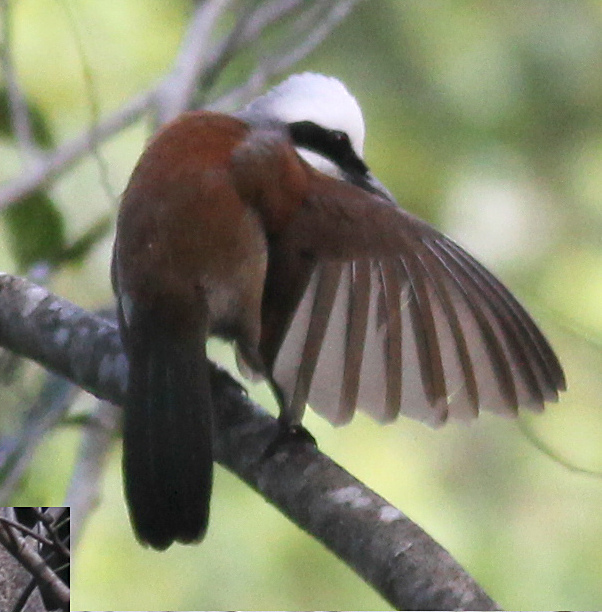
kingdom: Animalia
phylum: Chordata
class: Aves
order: Passeriformes
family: Leiothrichidae
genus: Garrulax
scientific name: Garrulax leucolophus
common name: White-crested laughingthrush
